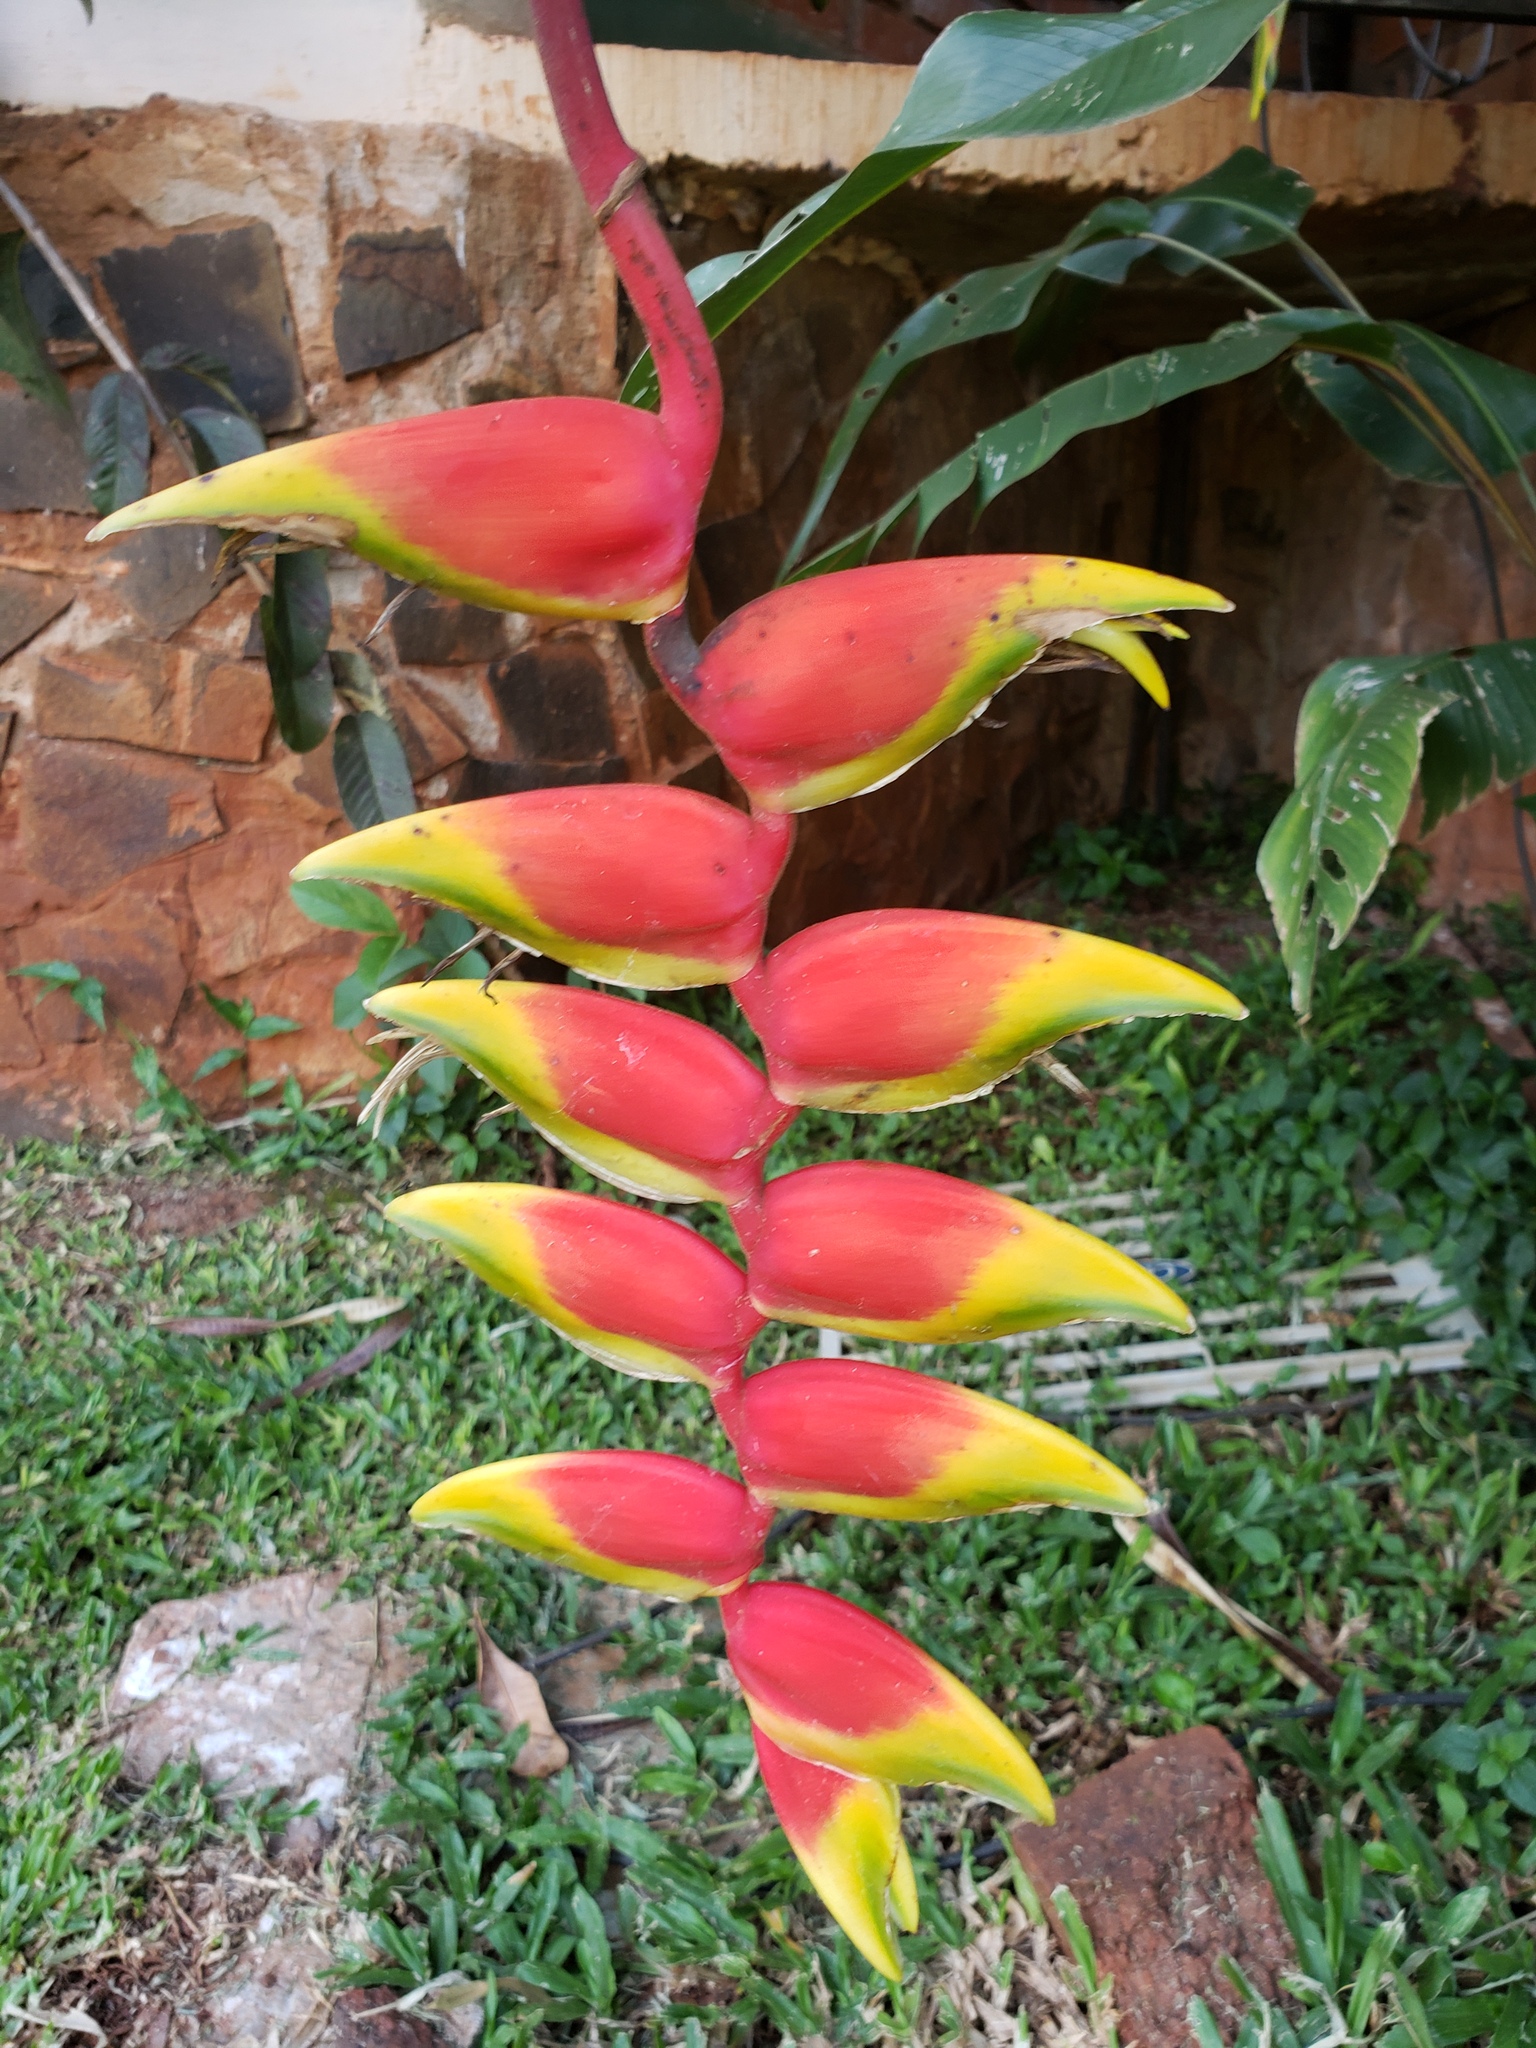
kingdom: Plantae
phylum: Tracheophyta
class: Liliopsida
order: Zingiberales
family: Heliconiaceae
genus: Heliconia
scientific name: Heliconia rostrata
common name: False bird of paradise
